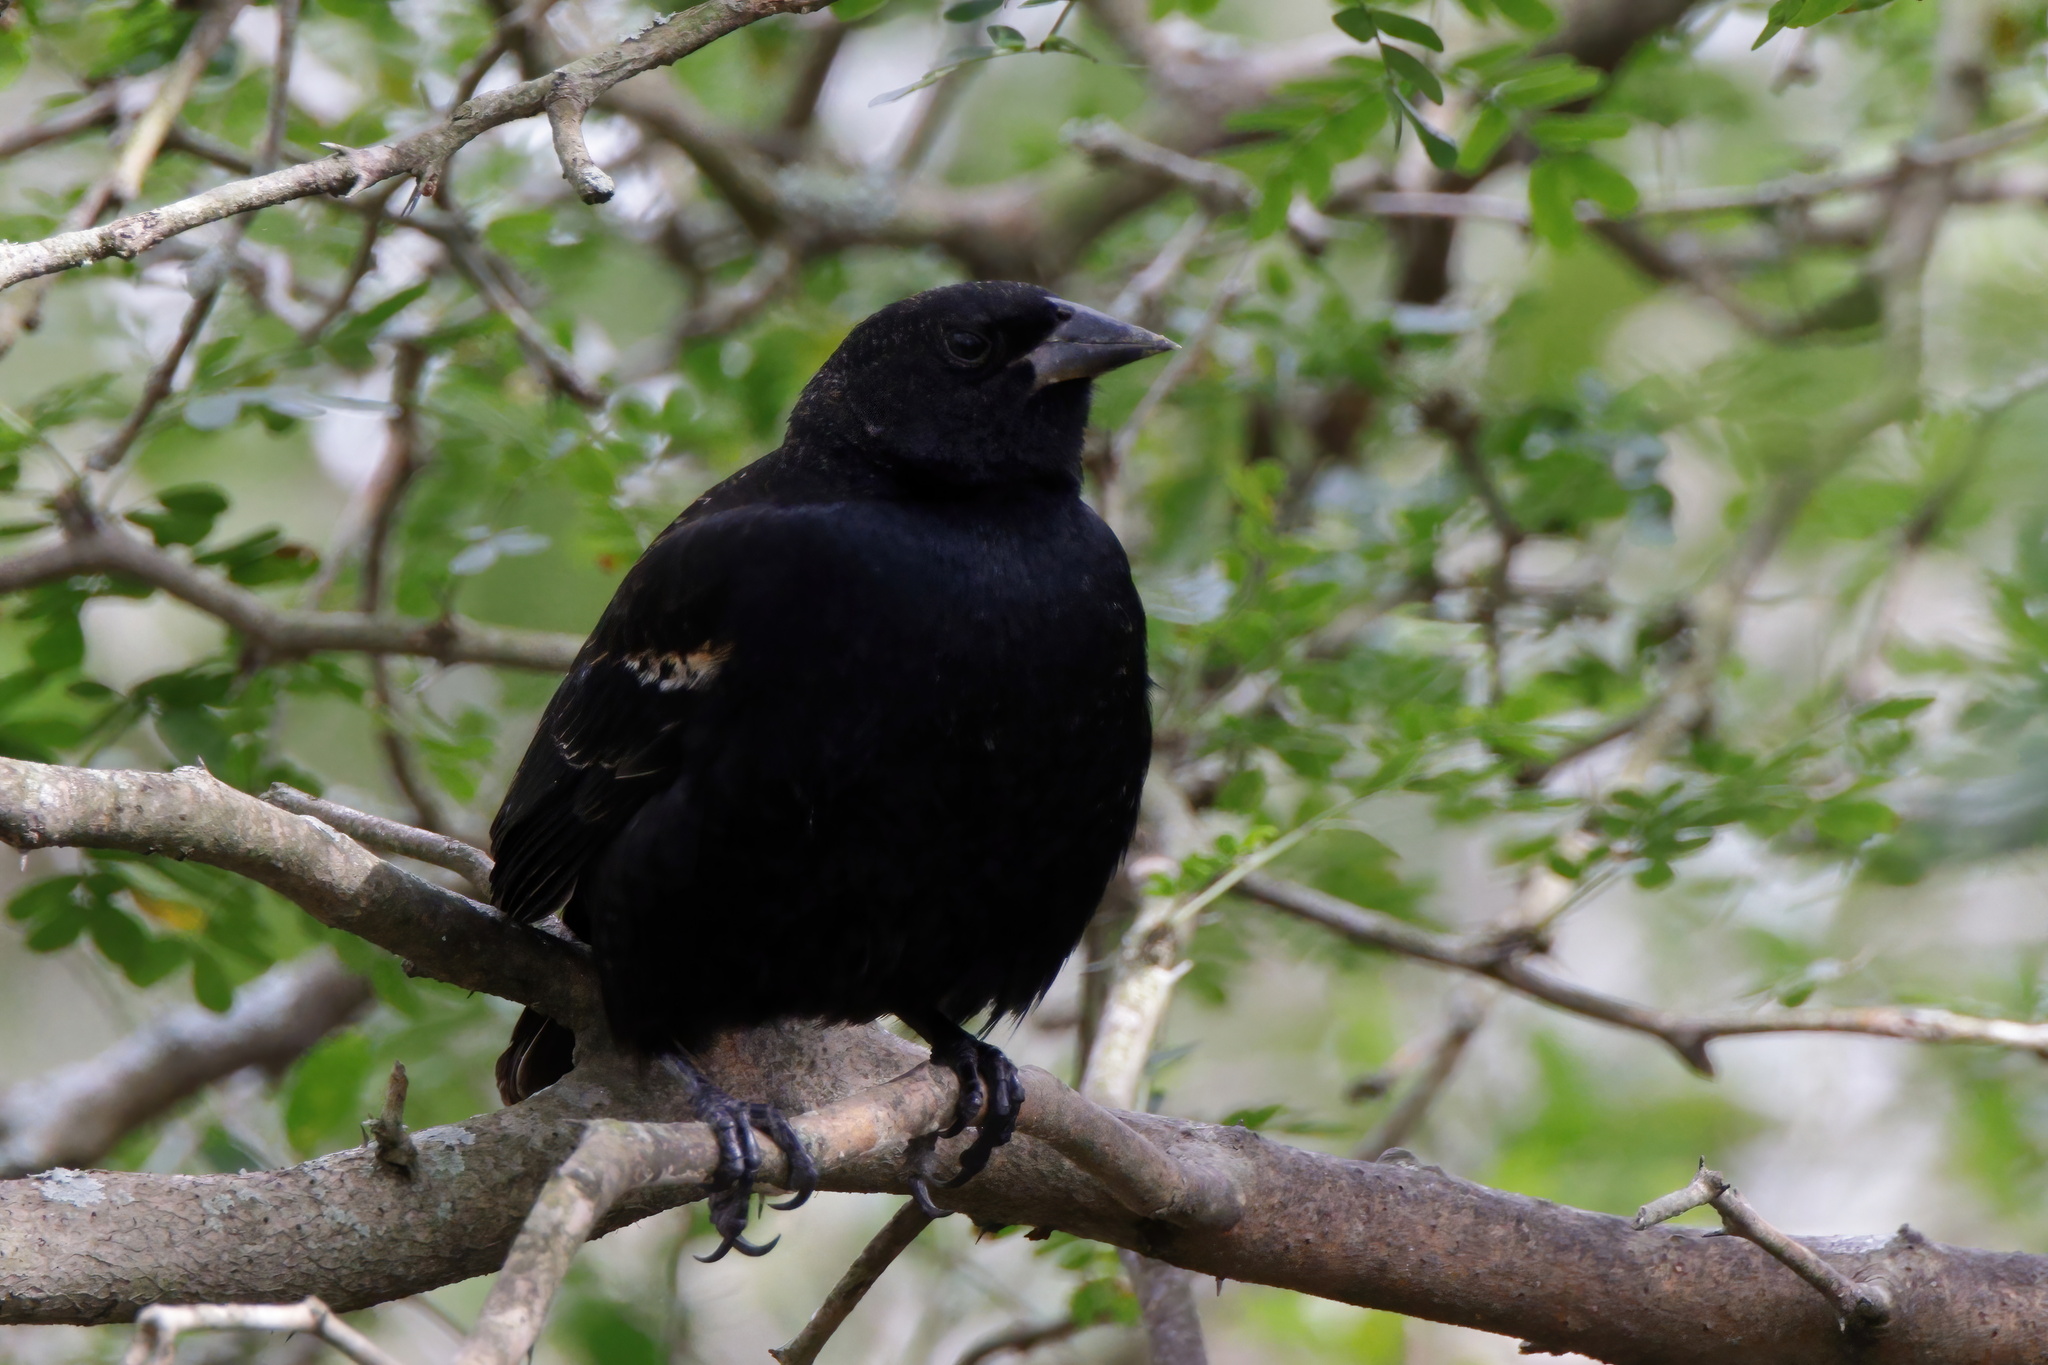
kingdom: Animalia
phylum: Chordata
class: Aves
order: Passeriformes
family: Icteridae
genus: Agelaius
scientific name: Agelaius phoeniceus
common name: Red-winged blackbird
